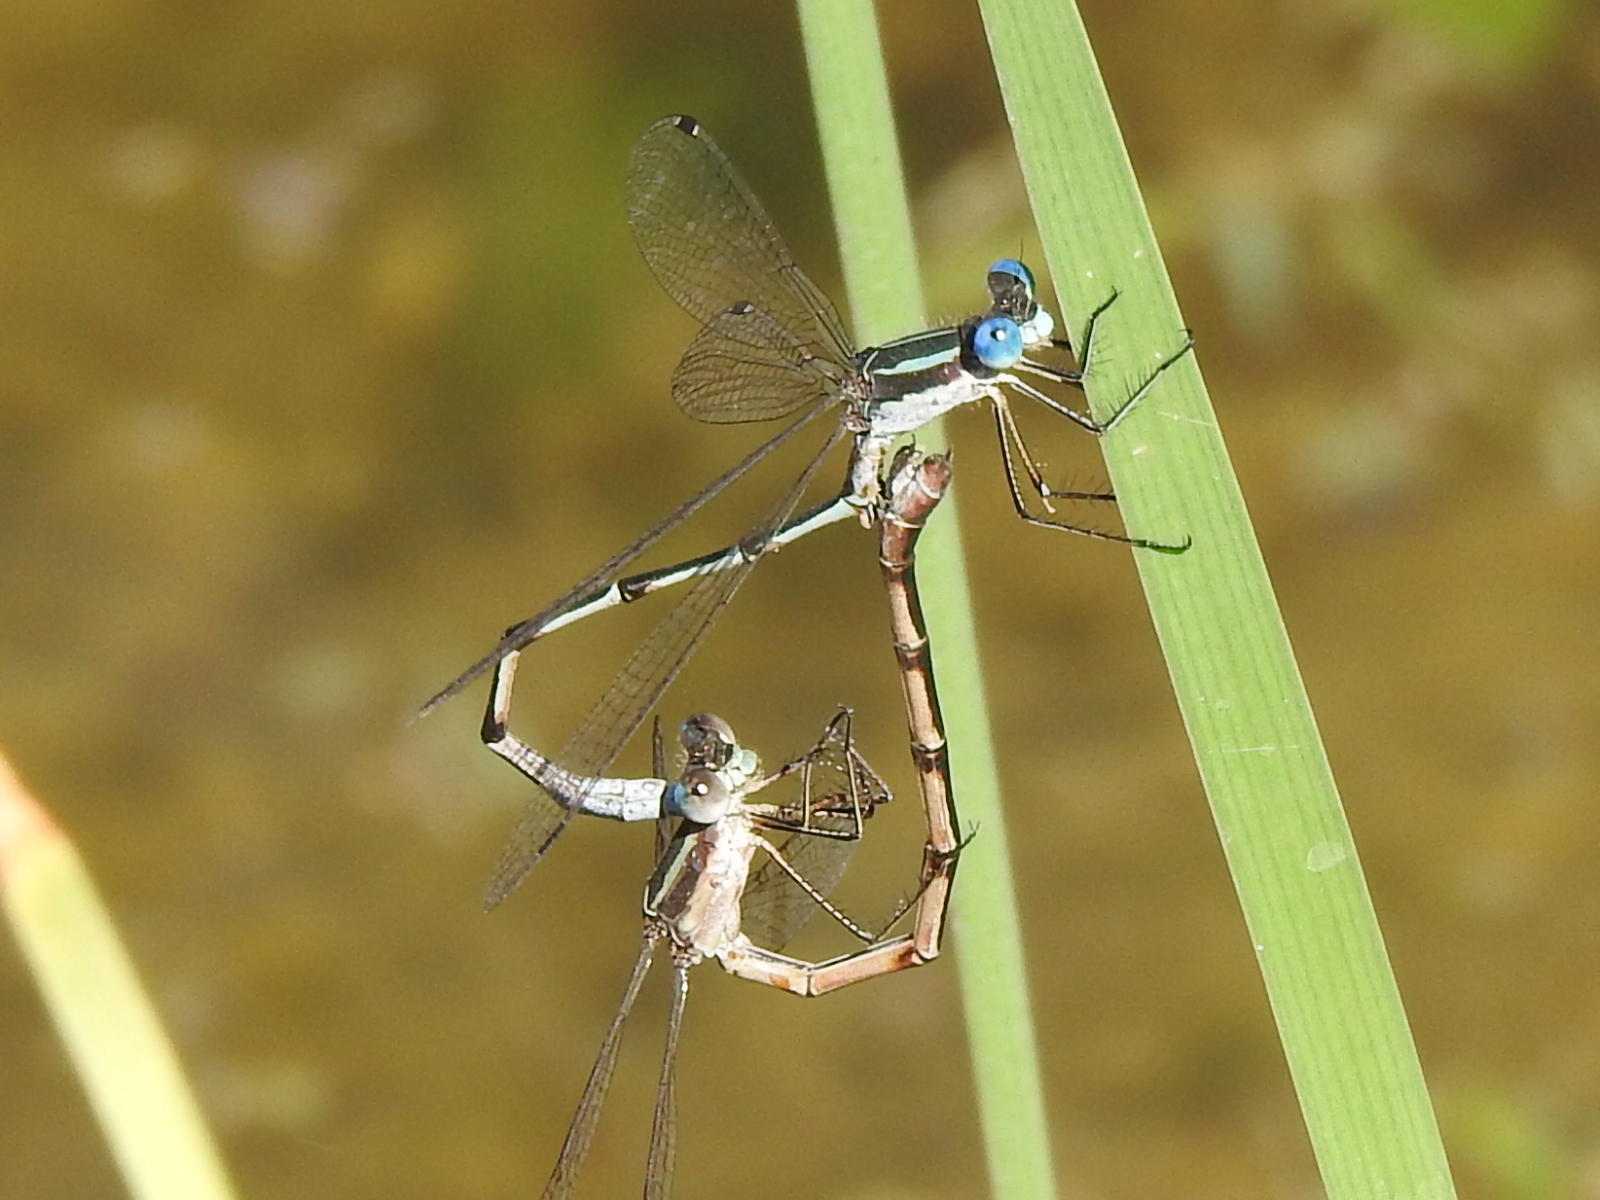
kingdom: Animalia
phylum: Arthropoda
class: Insecta
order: Odonata
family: Lestidae
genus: Lestes
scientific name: Lestes australis
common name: Southern spreadwing
